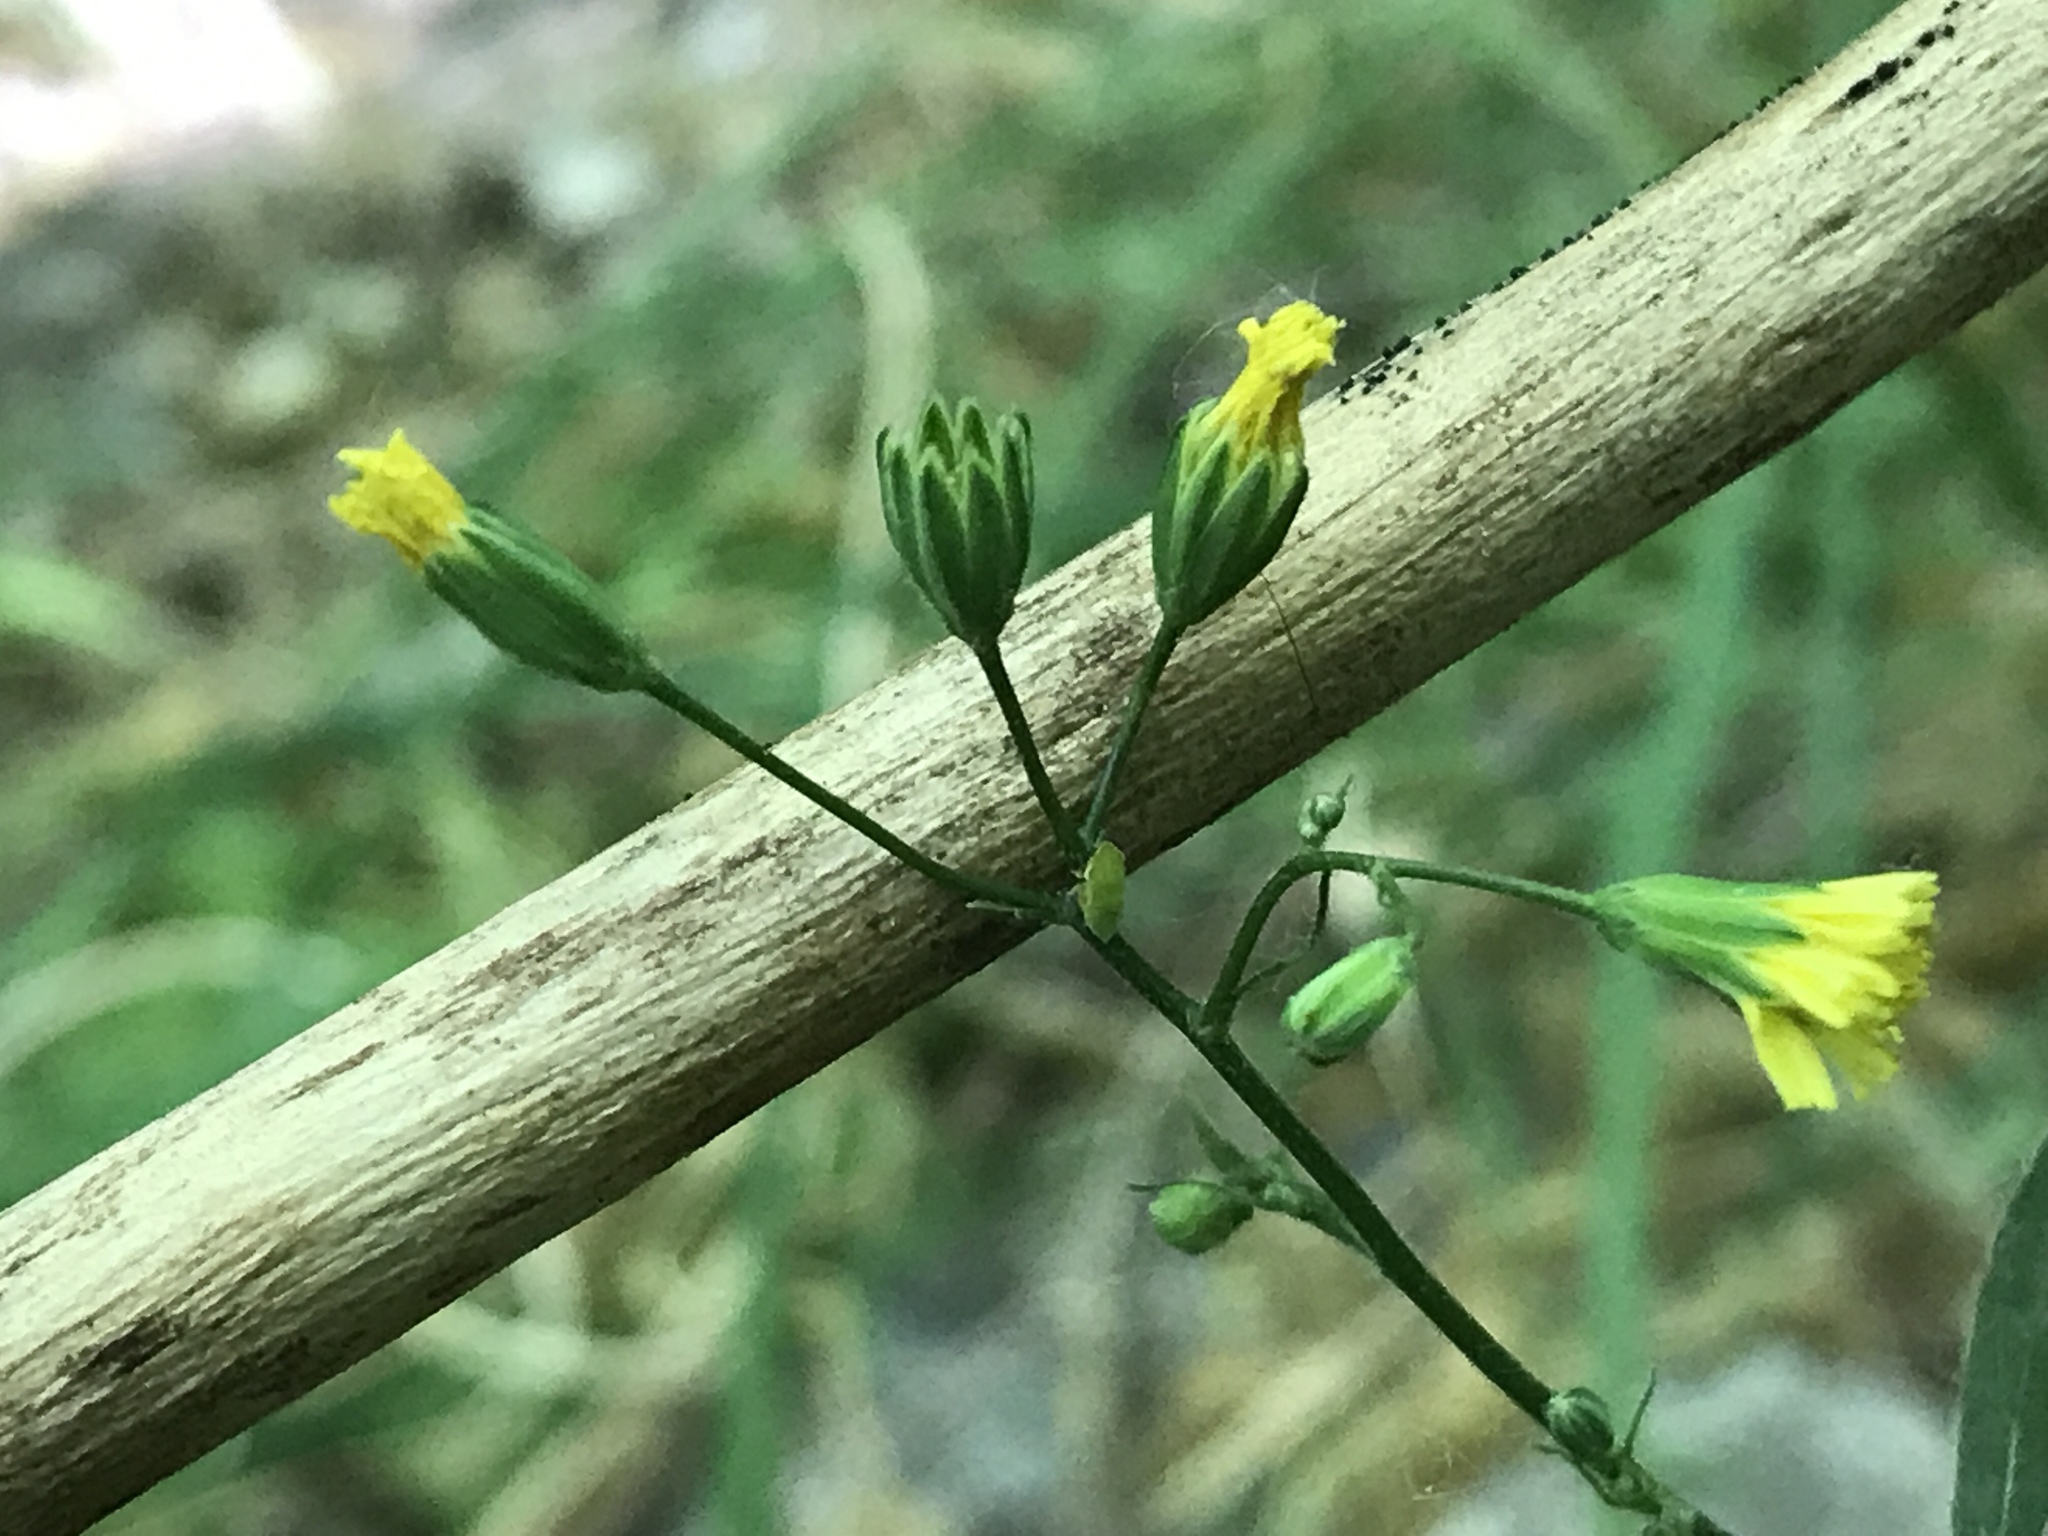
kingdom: Plantae
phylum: Tracheophyta
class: Magnoliopsida
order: Asterales
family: Asteraceae
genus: Lapsana
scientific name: Lapsana communis
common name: Nipplewort
